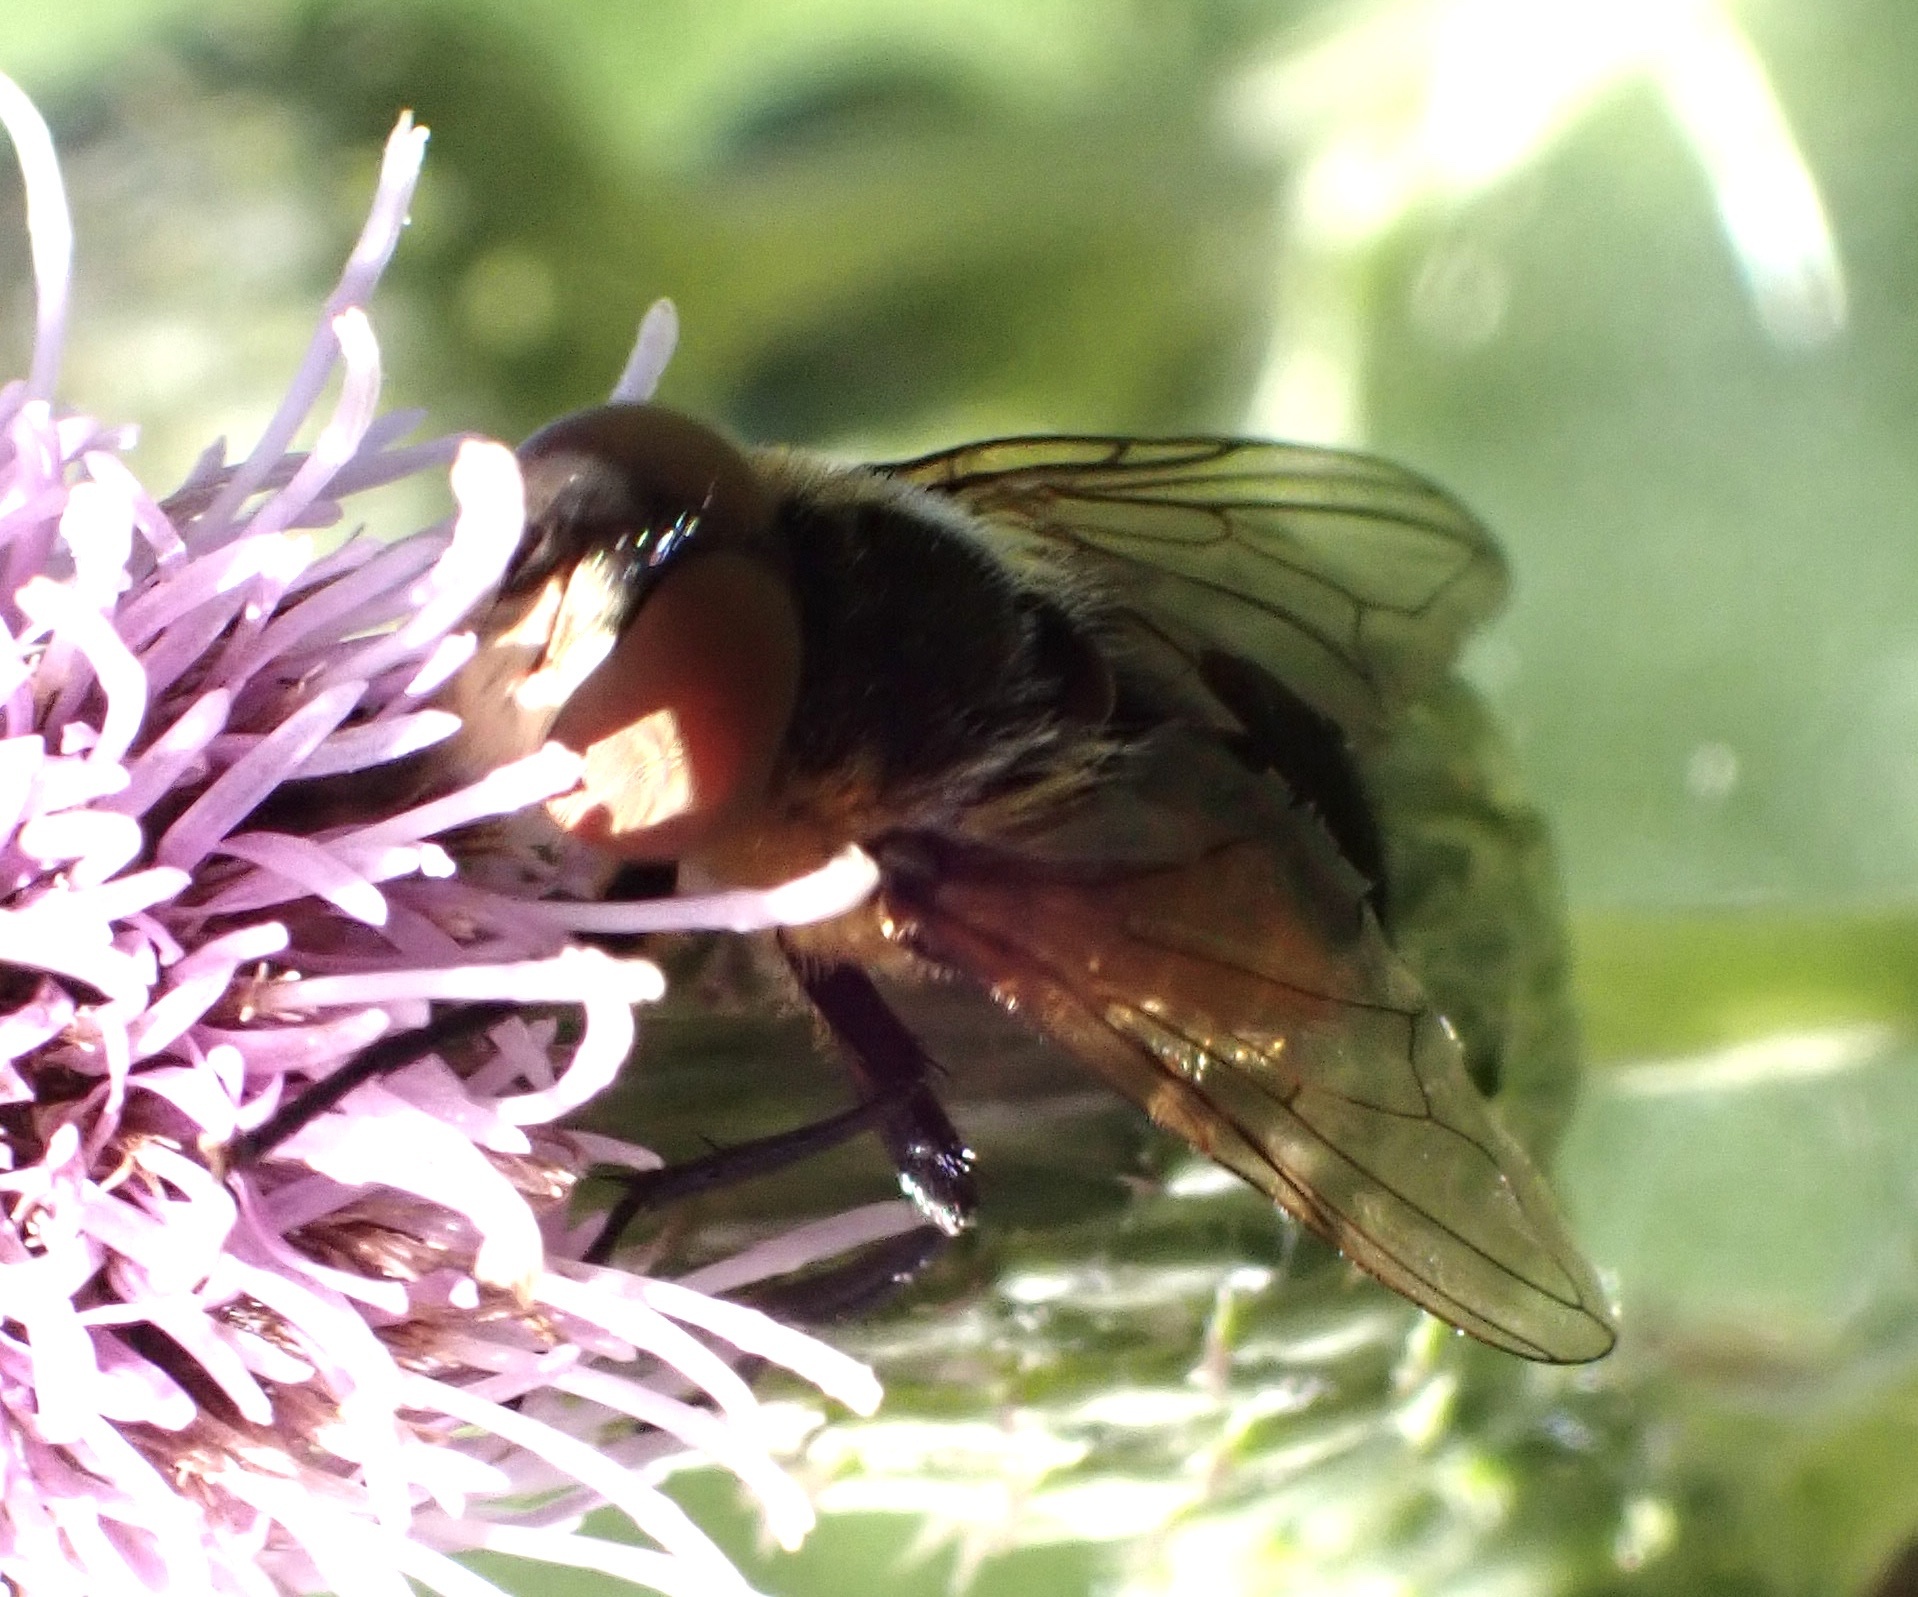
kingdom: Animalia
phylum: Arthropoda
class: Insecta
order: Diptera
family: Tachinidae
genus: Phasia
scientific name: Phasia hemiptera
